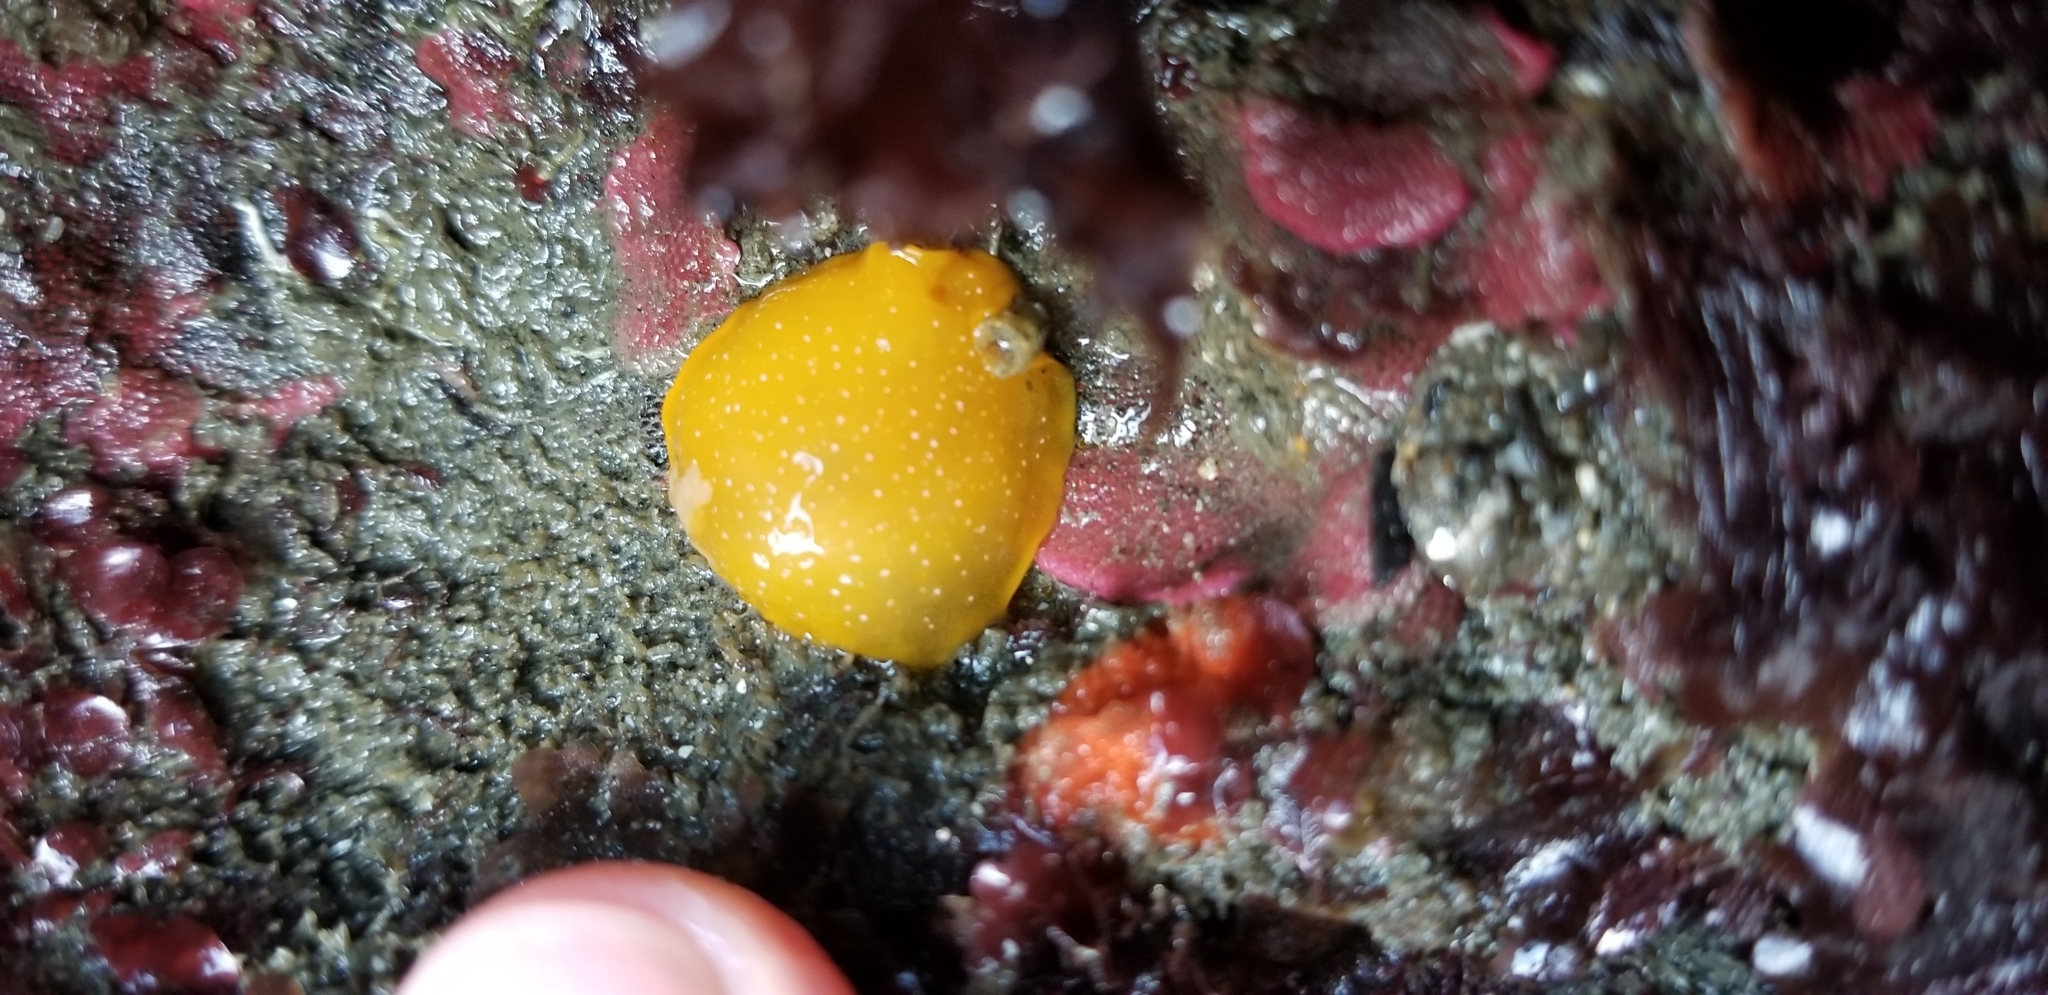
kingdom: Animalia
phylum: Mollusca
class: Gastropoda
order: Nudibranchia
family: Dendrodorididae
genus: Doriopsilla
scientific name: Doriopsilla fulva
